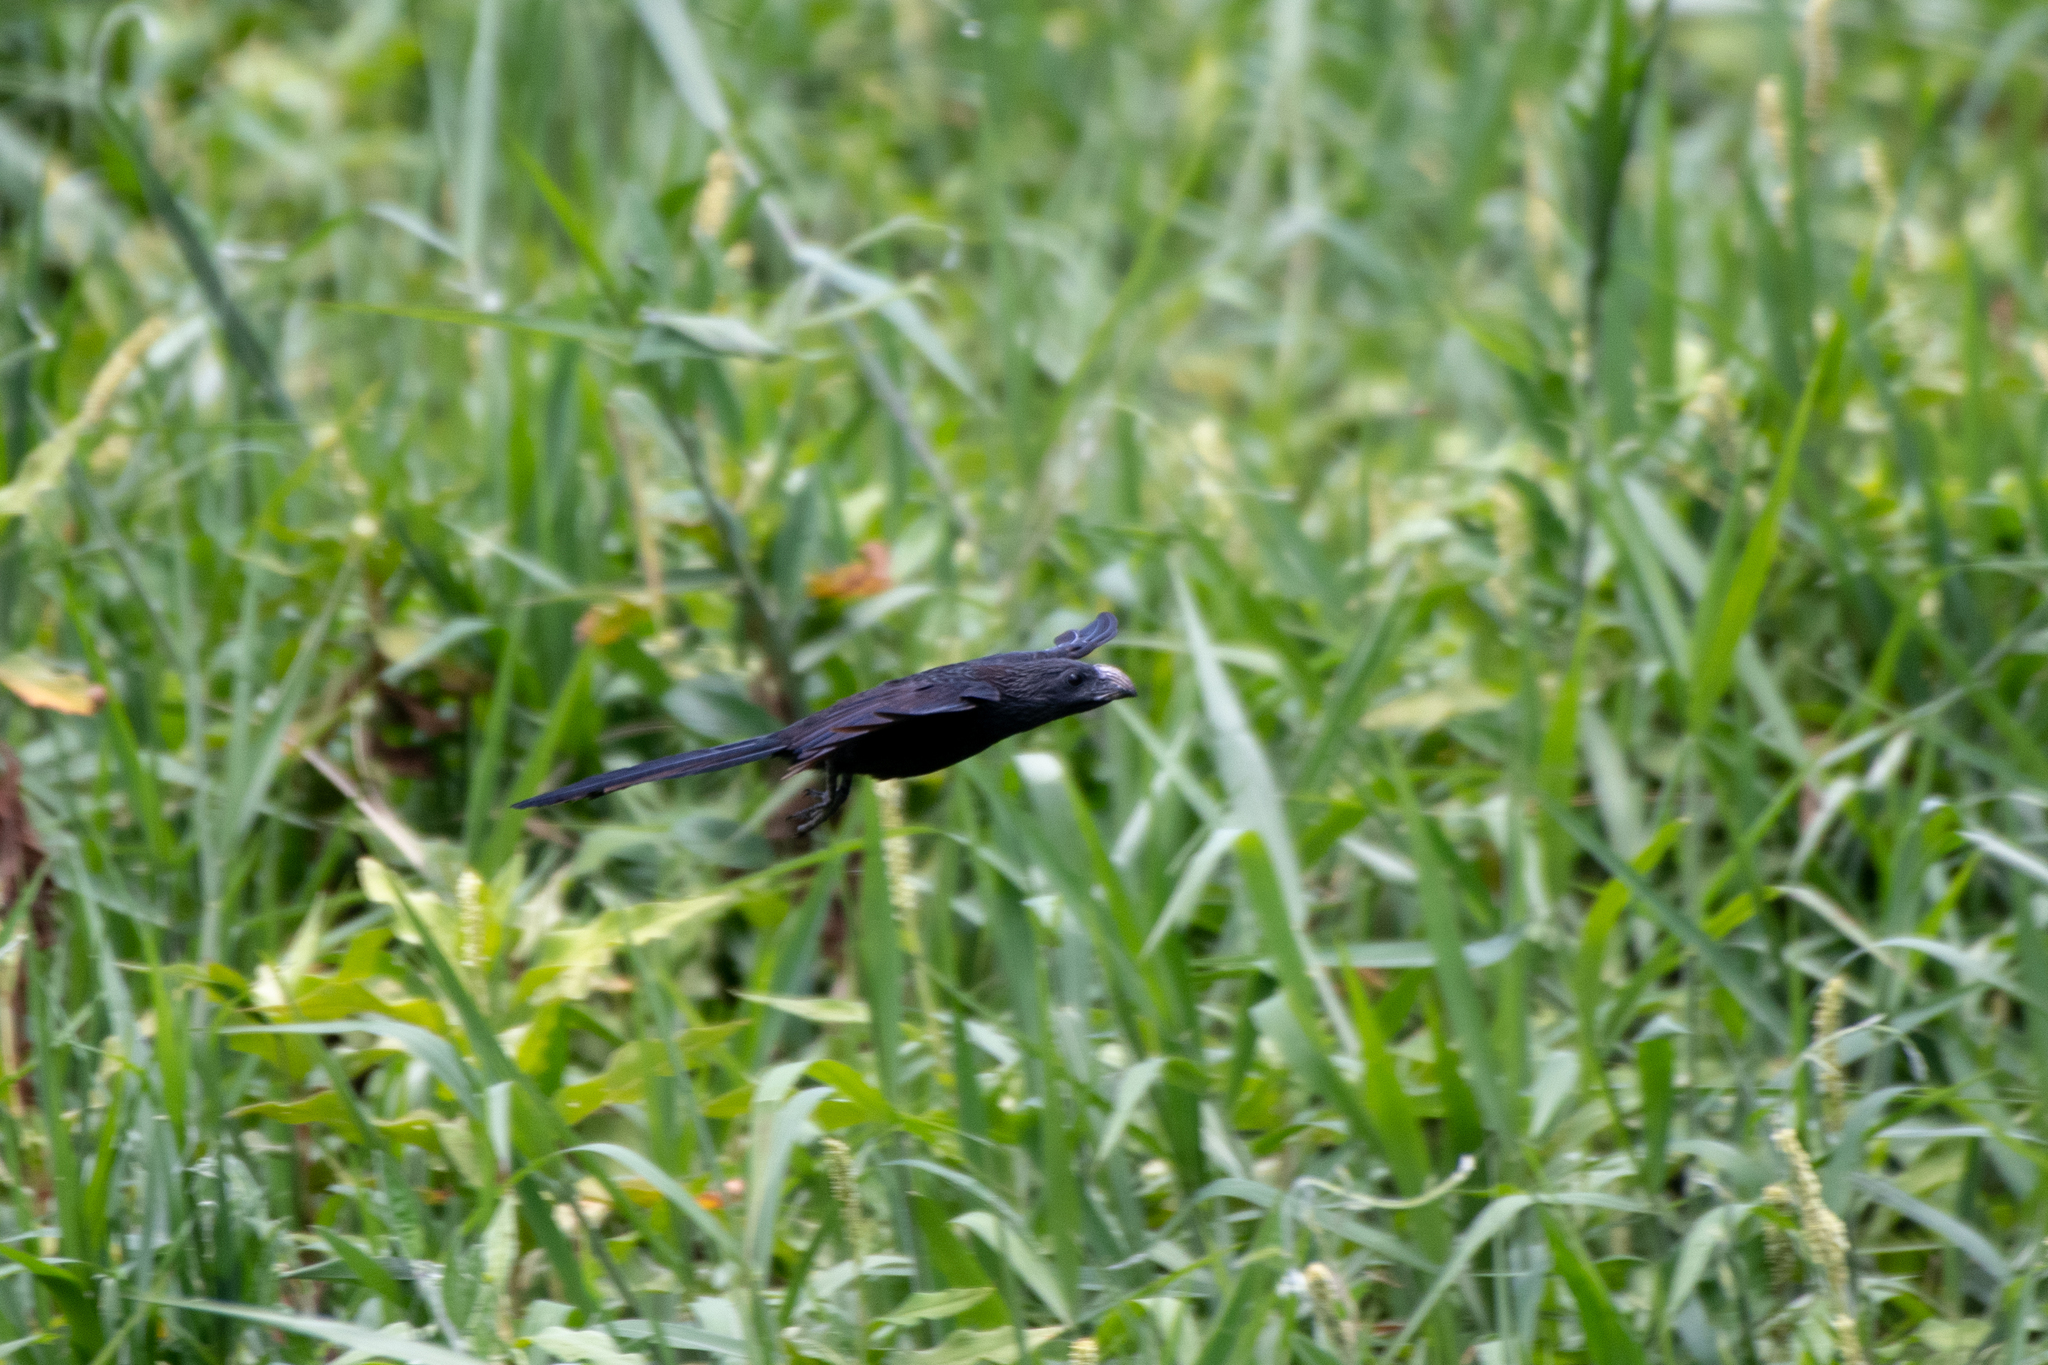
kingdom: Animalia
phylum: Chordata
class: Aves
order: Cuculiformes
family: Cuculidae
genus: Crotophaga
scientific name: Crotophaga sulcirostris
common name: Groove-billed ani
